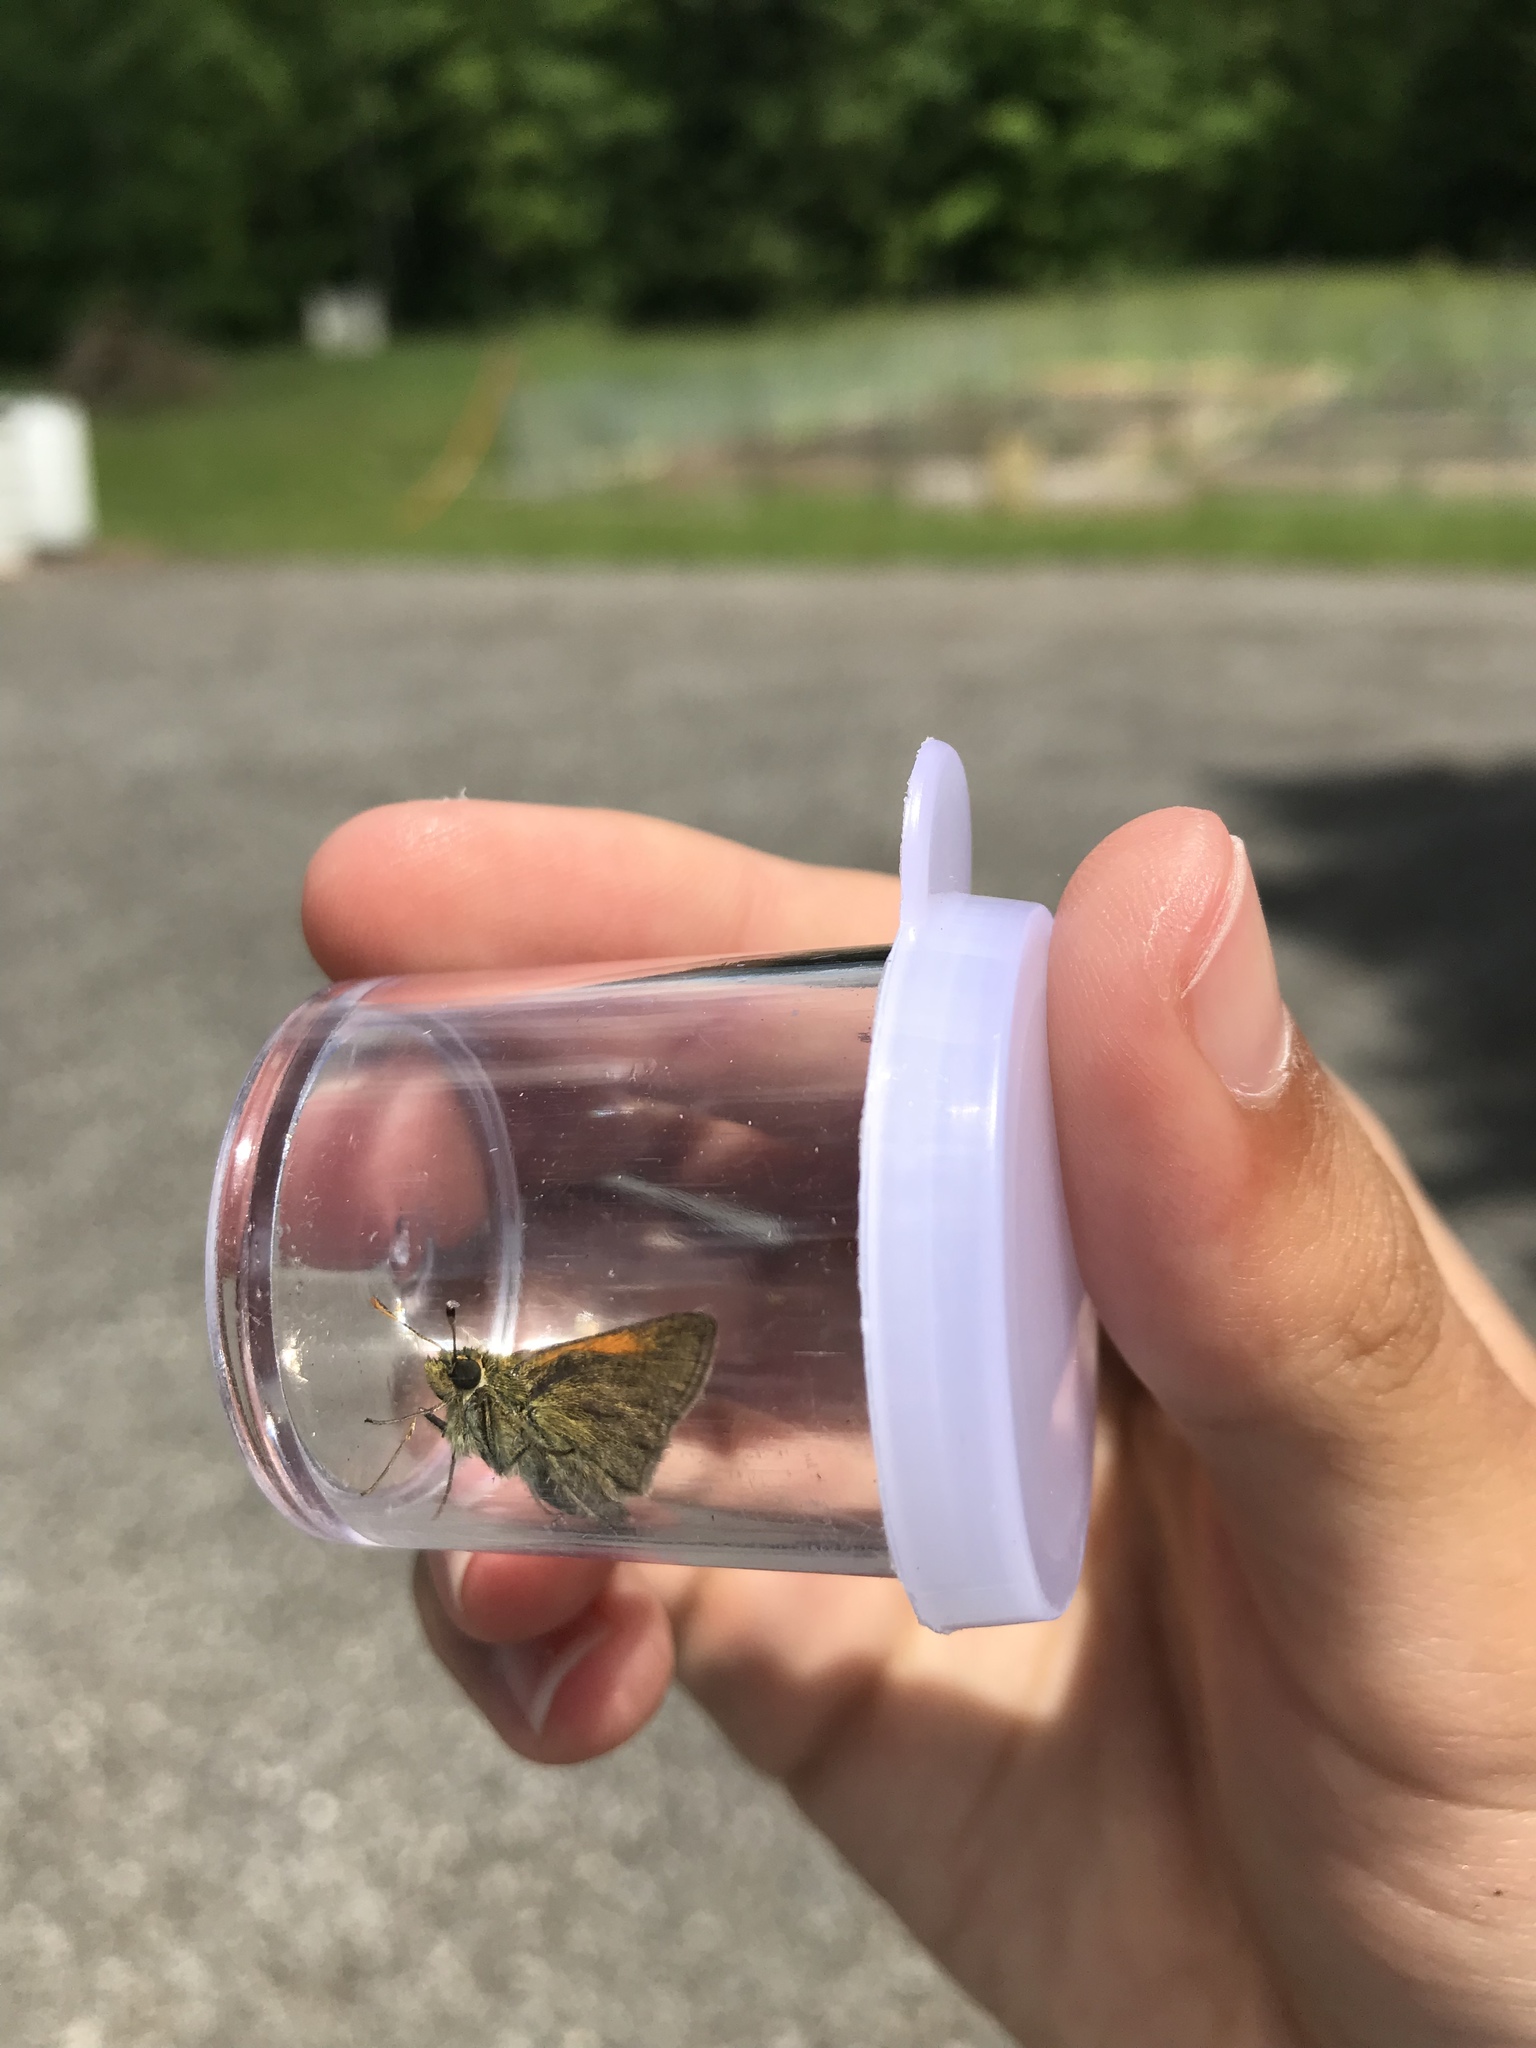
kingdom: Animalia
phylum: Arthropoda
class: Insecta
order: Lepidoptera
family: Hesperiidae
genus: Polites
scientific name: Polites themistocles
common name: Tawny-edged skipper
